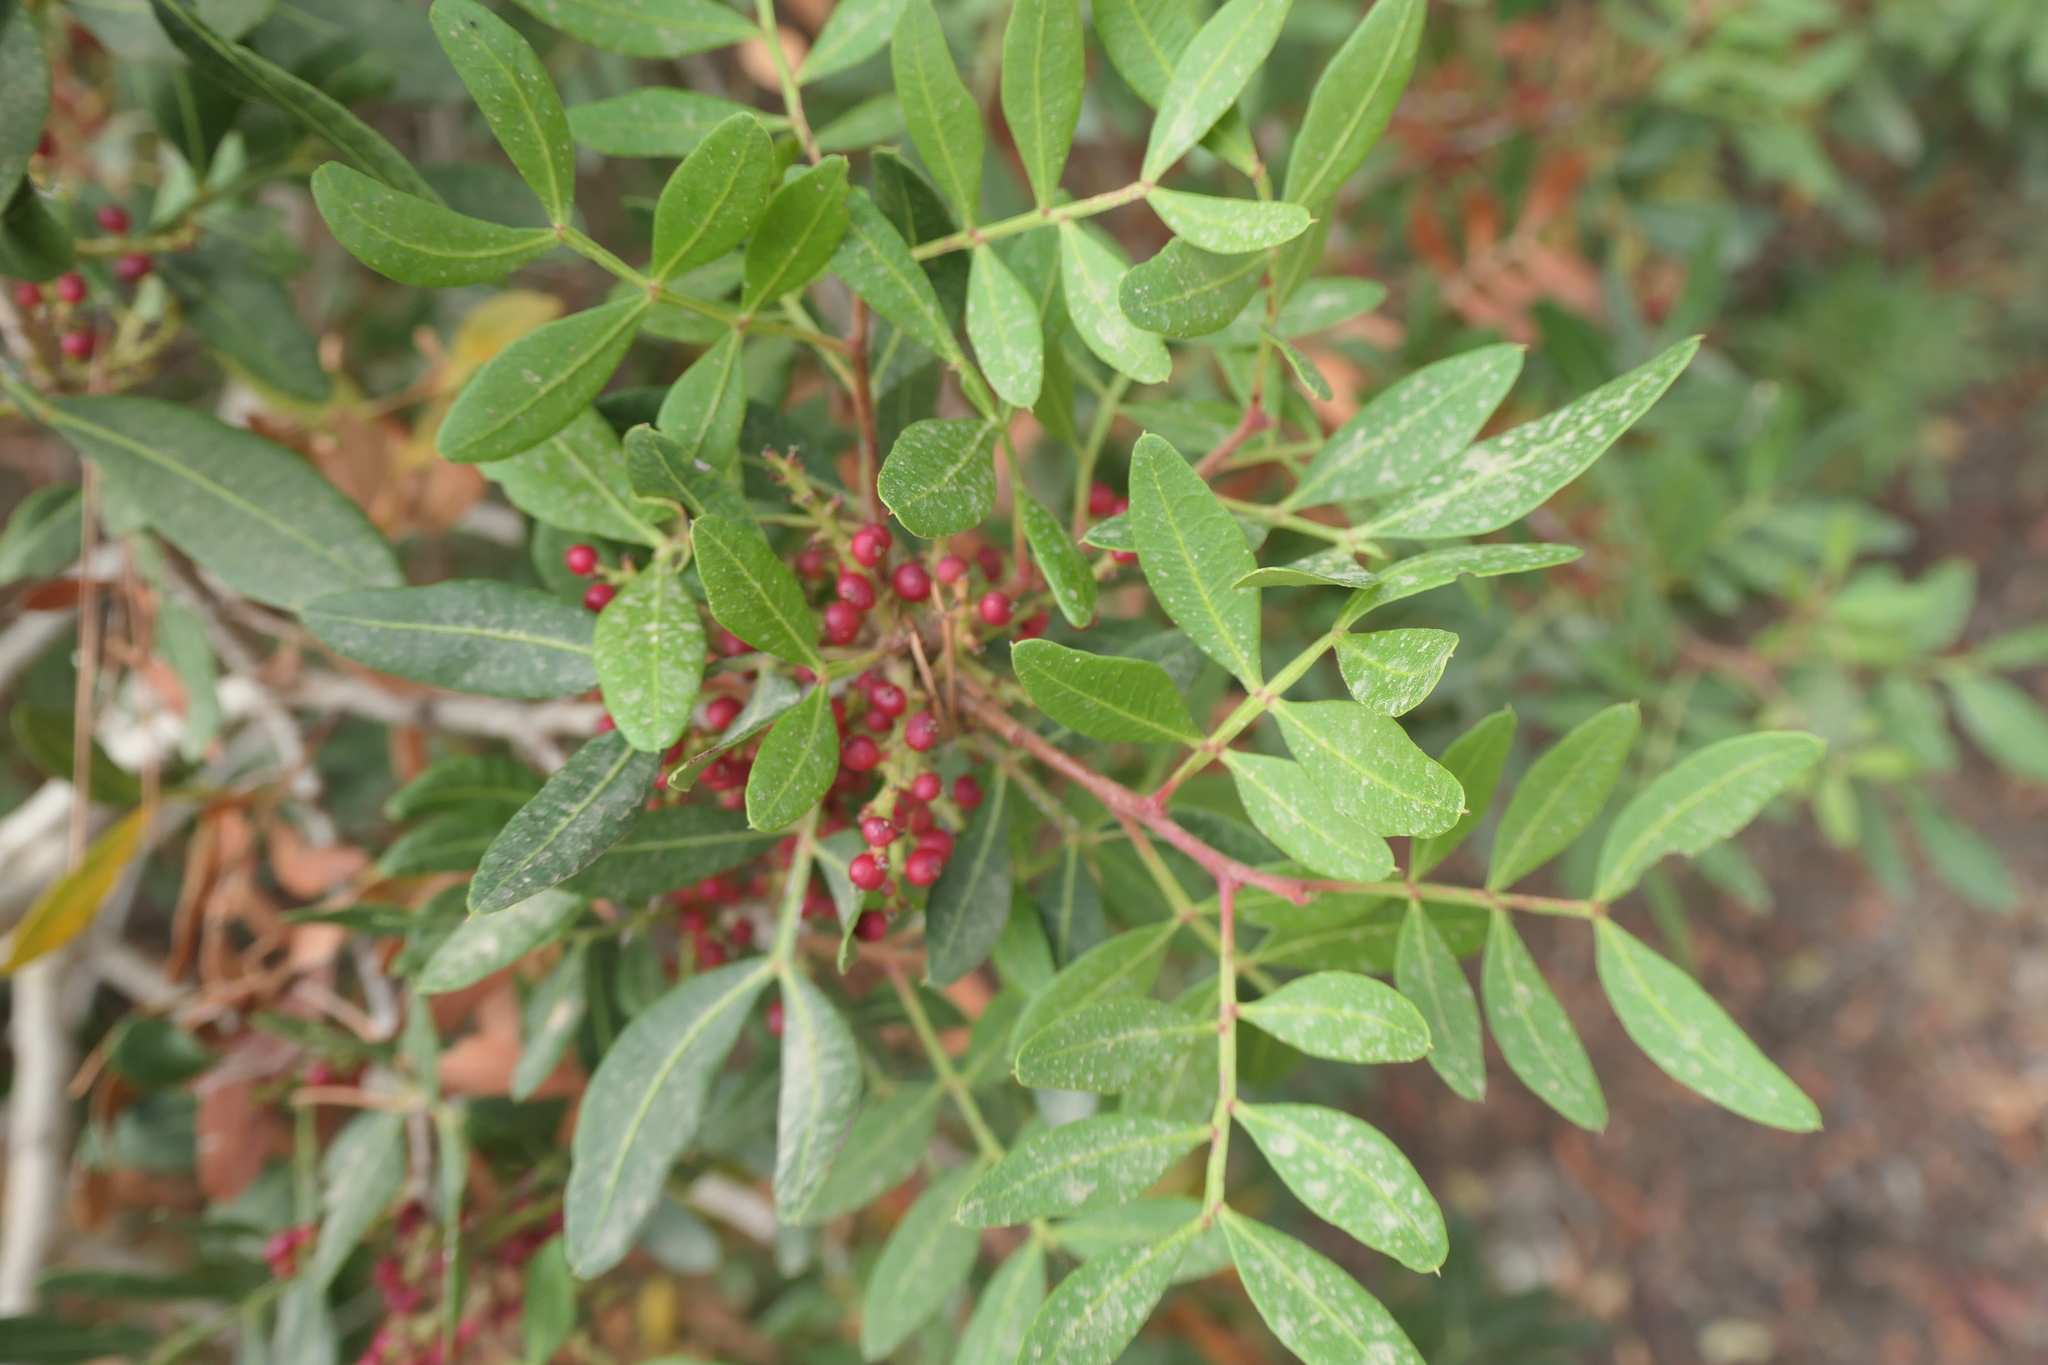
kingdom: Plantae
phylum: Tracheophyta
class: Magnoliopsida
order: Sapindales
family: Anacardiaceae
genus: Pistacia
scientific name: Pistacia lentiscus
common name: Lentisk
